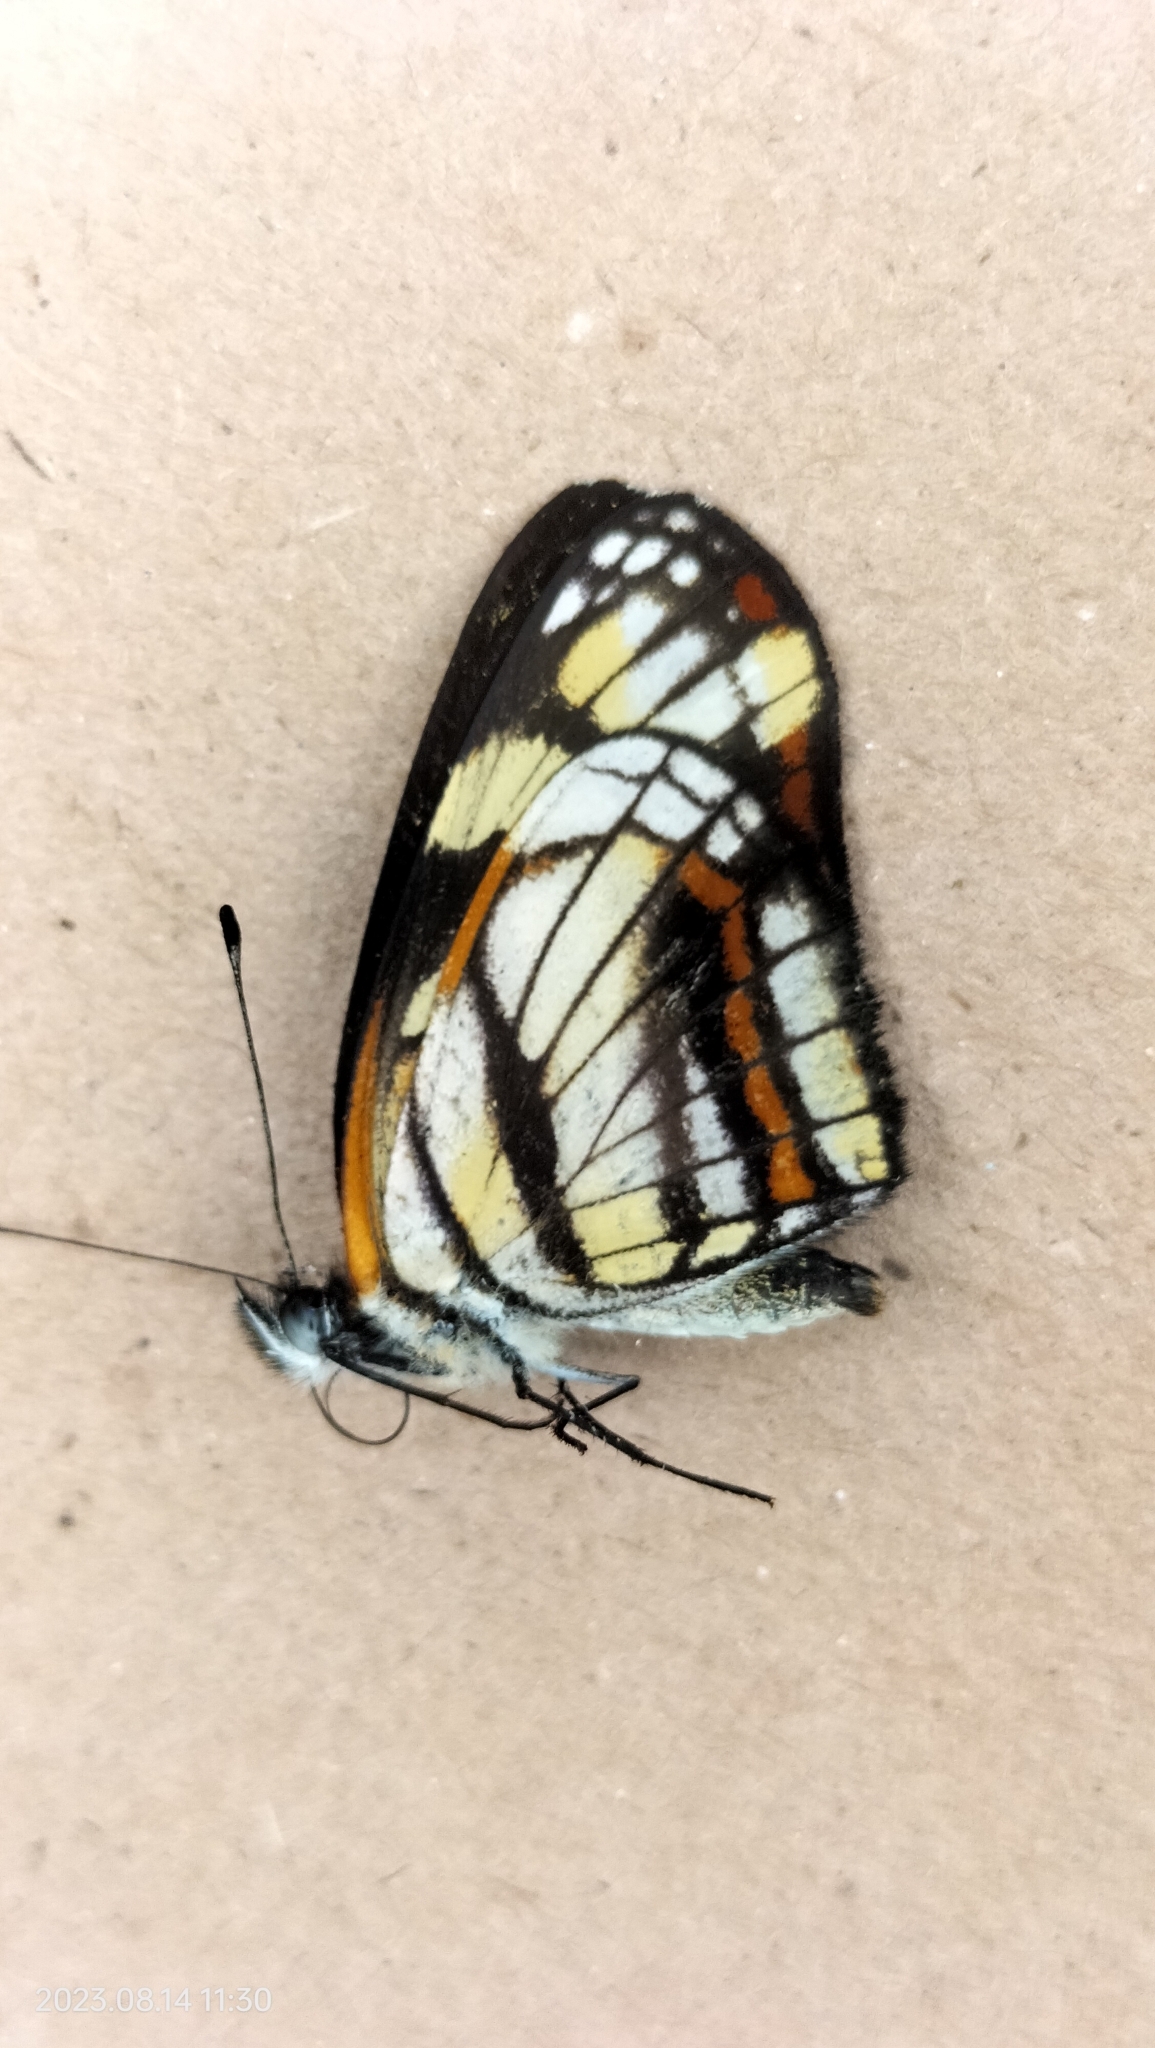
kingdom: Animalia
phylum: Arthropoda
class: Insecta
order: Lepidoptera
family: Nymphalidae
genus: Eresia
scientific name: Eresia polina
